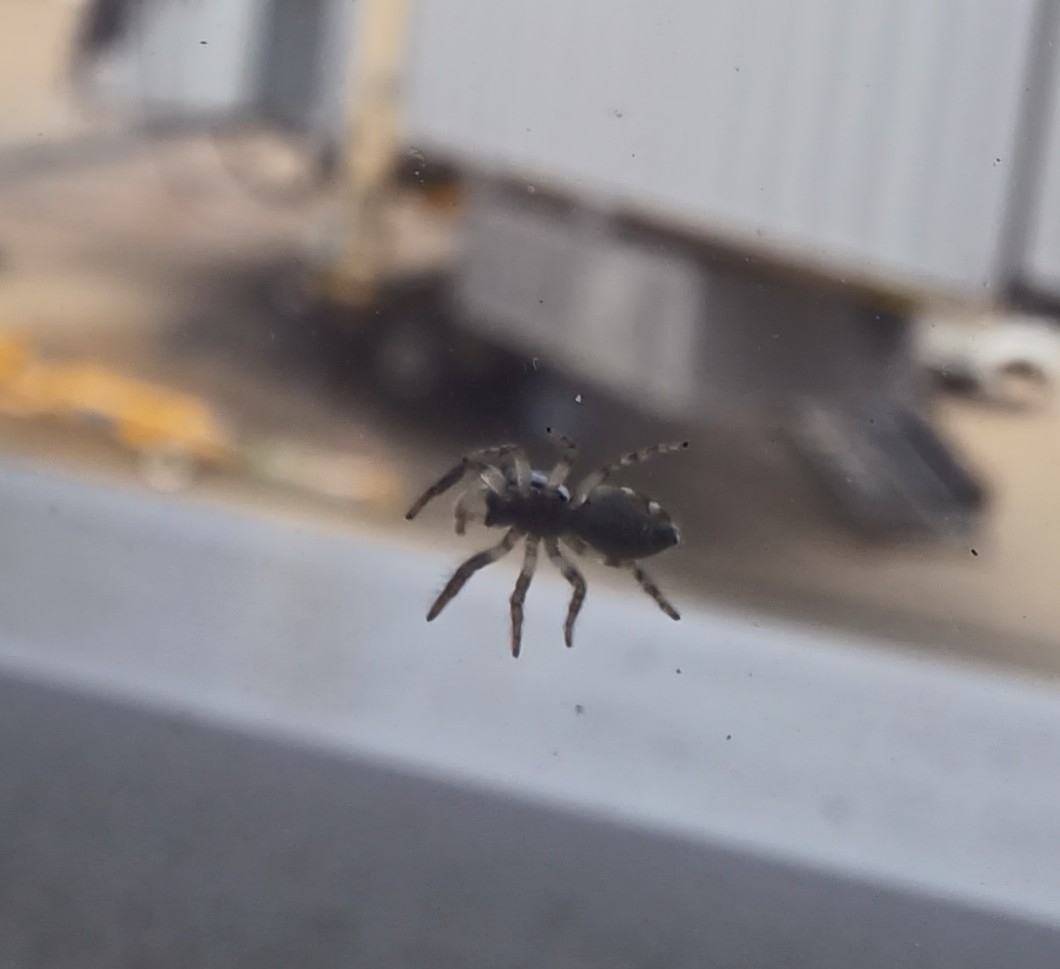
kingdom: Animalia
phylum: Arthropoda
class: Arachnida
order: Araneae
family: Salticidae
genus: Salticus
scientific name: Salticus scenicus
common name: Zebra jumper
